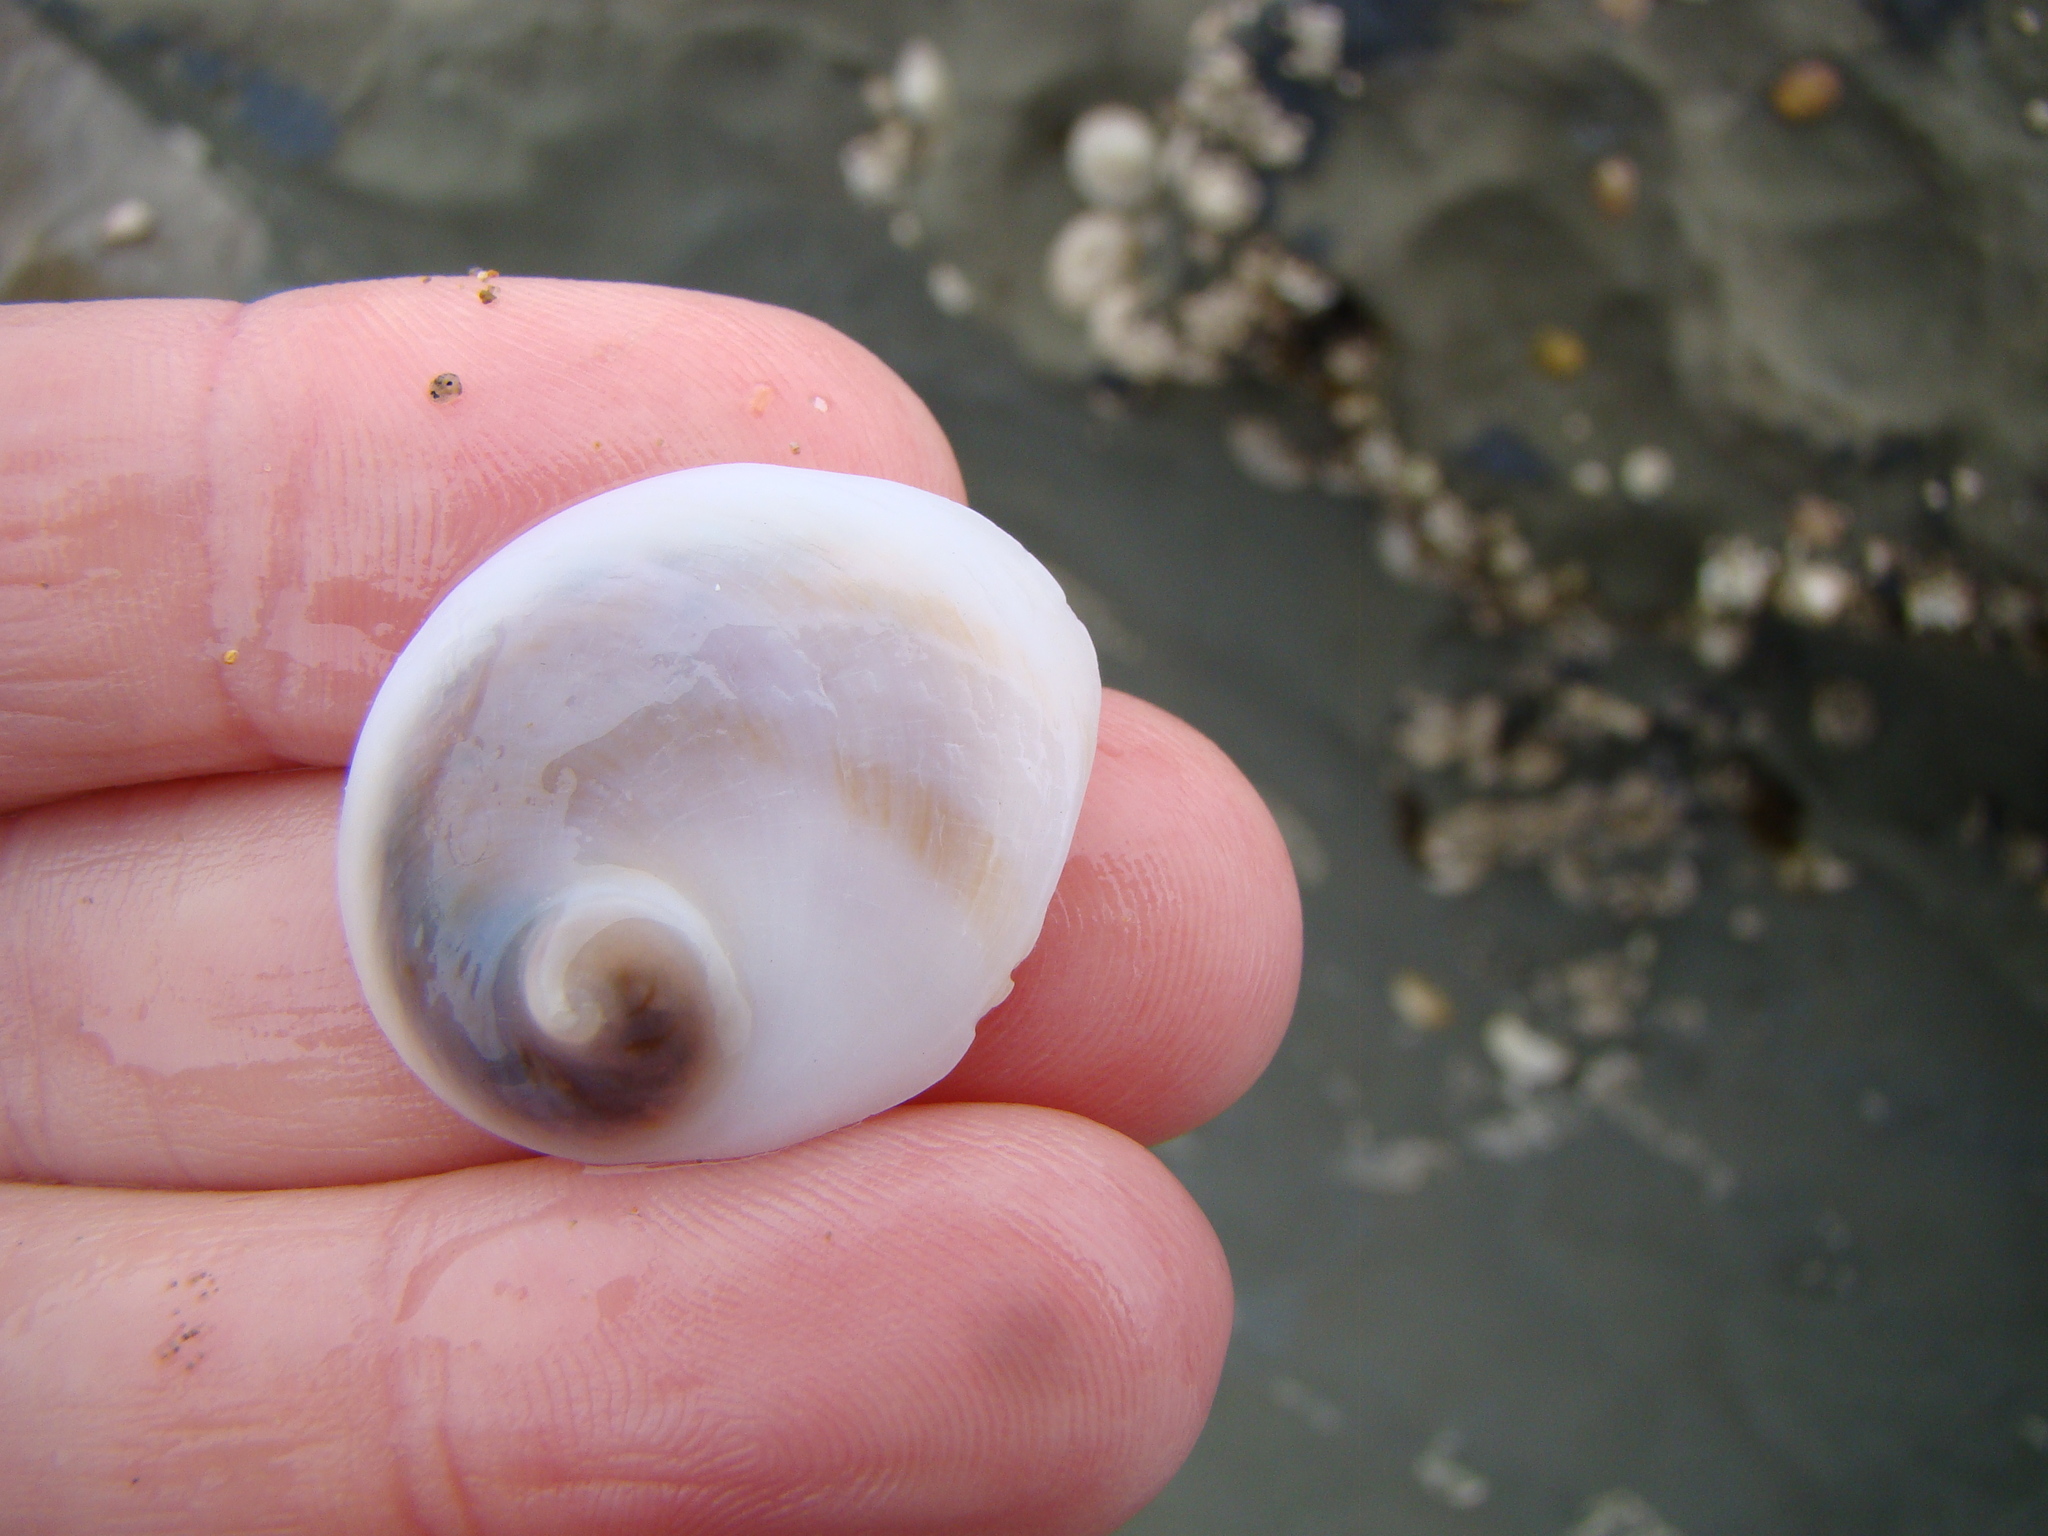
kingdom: Animalia
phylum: Mollusca
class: Gastropoda
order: Littorinimorpha
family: Calyptraeidae
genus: Sigapatella
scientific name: Sigapatella novaezelandiae
